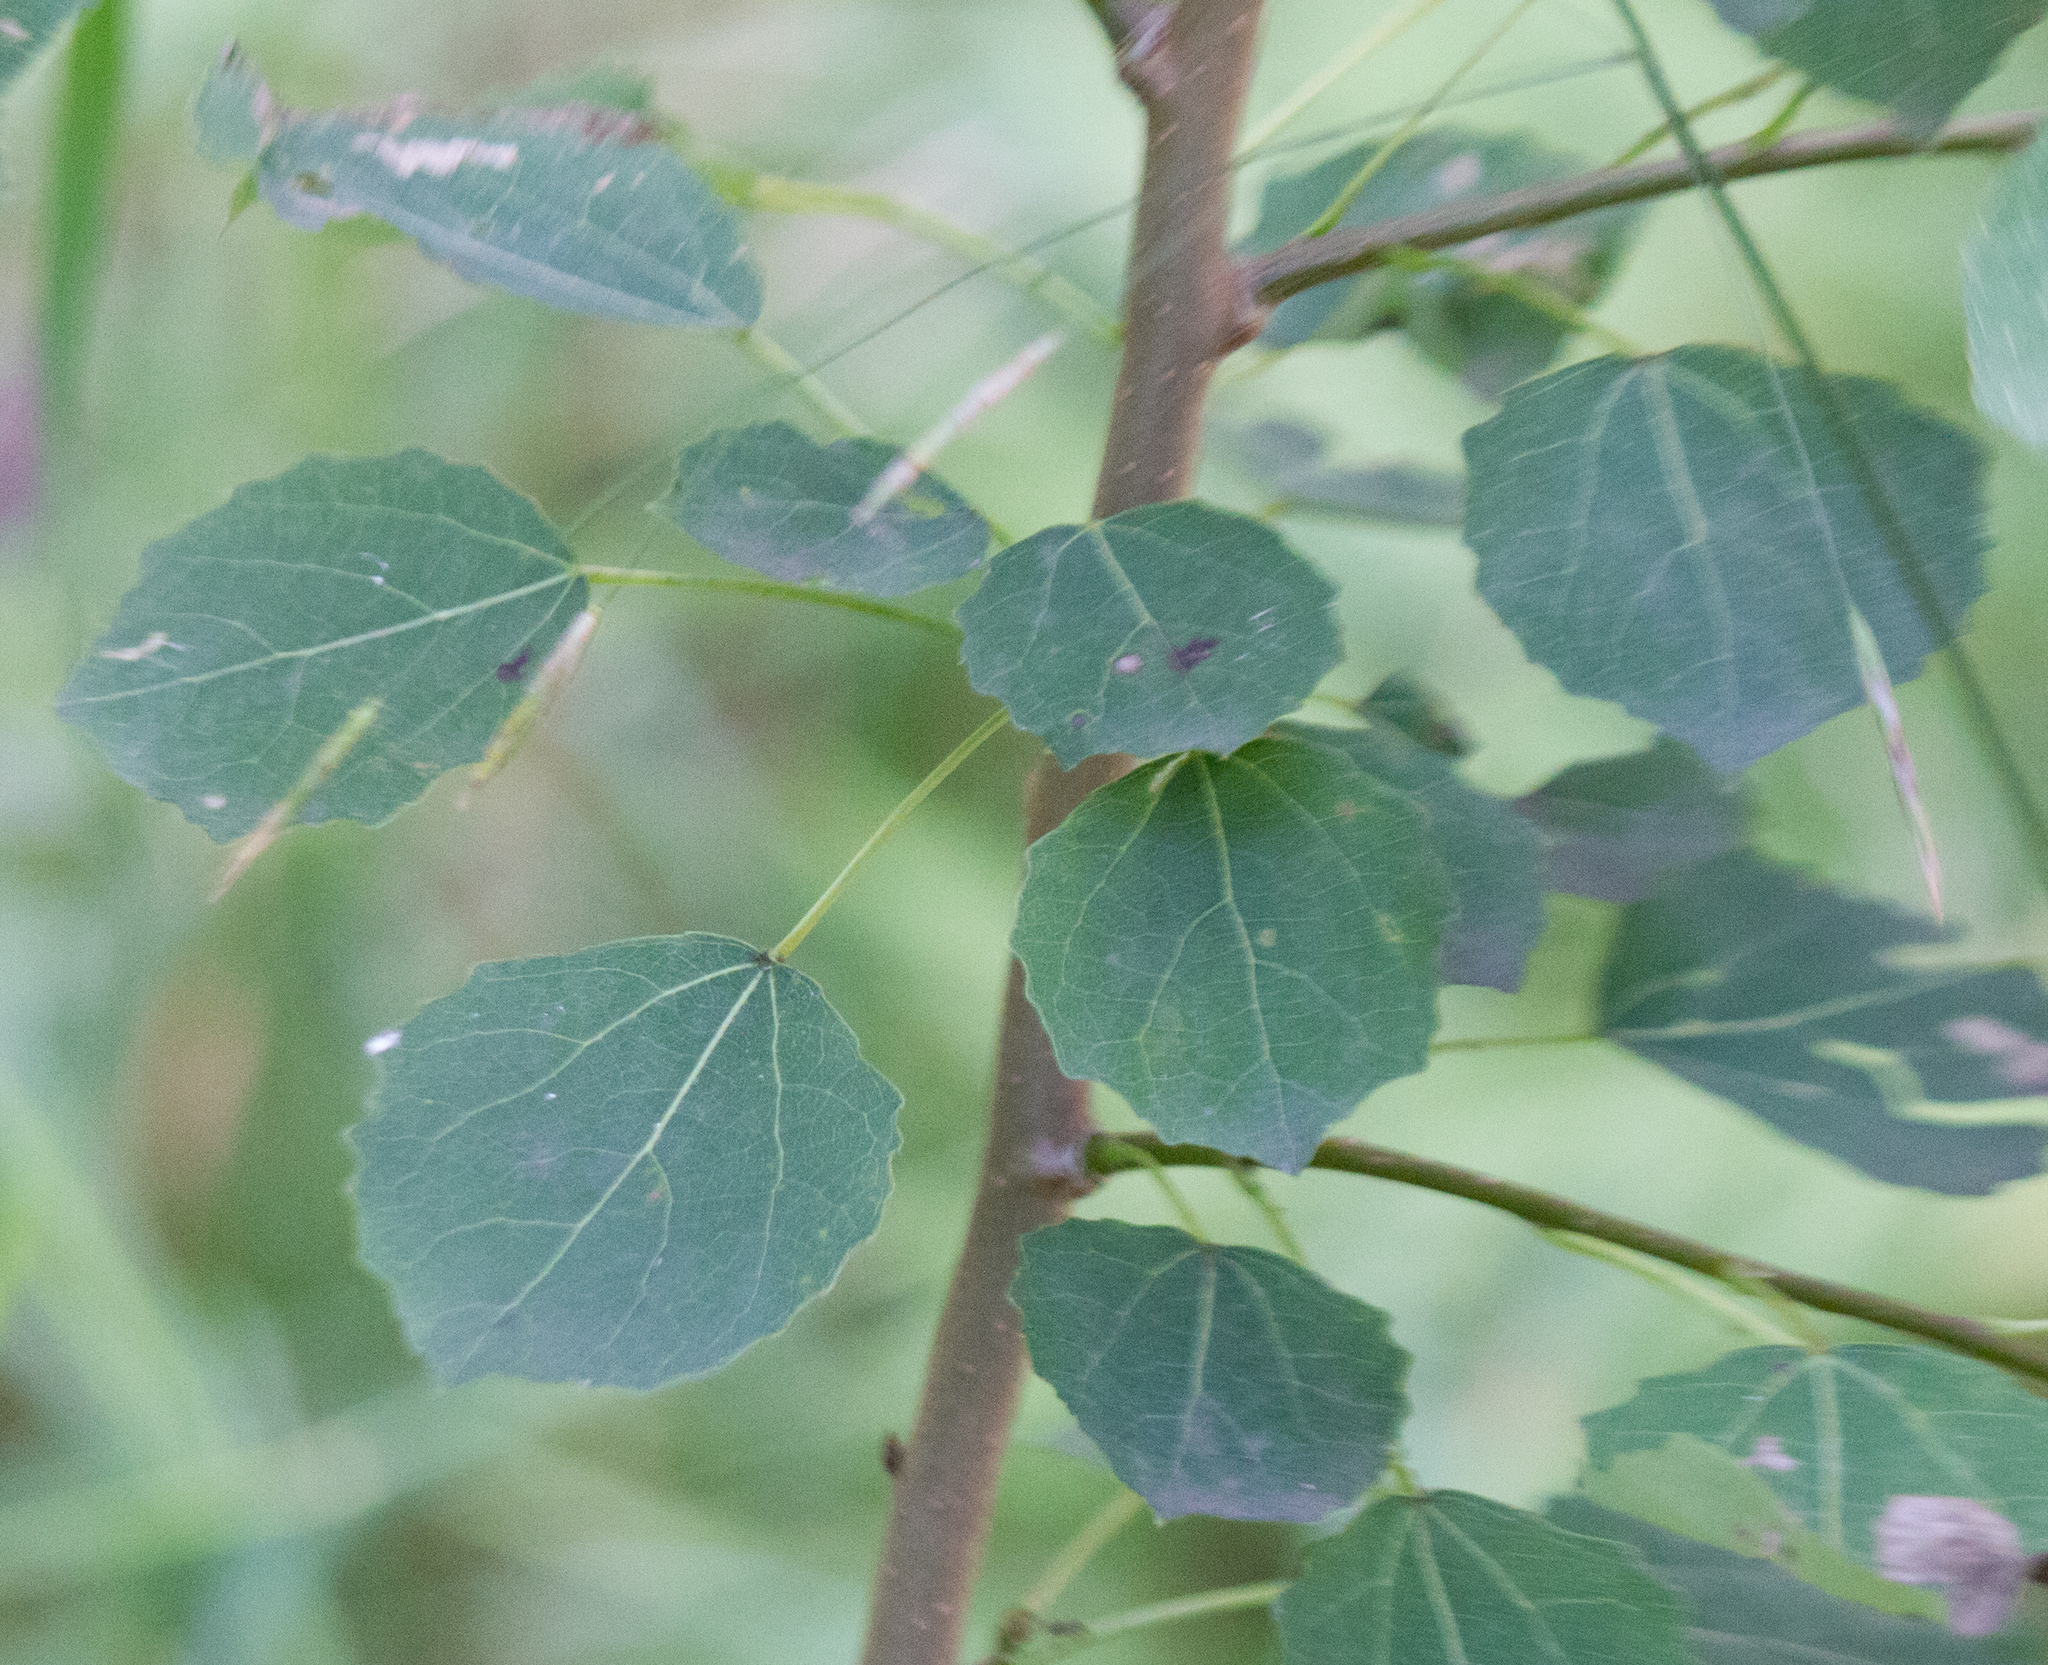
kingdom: Plantae
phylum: Tracheophyta
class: Magnoliopsida
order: Malpighiales
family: Salicaceae
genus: Populus
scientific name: Populus tremula
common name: European aspen
